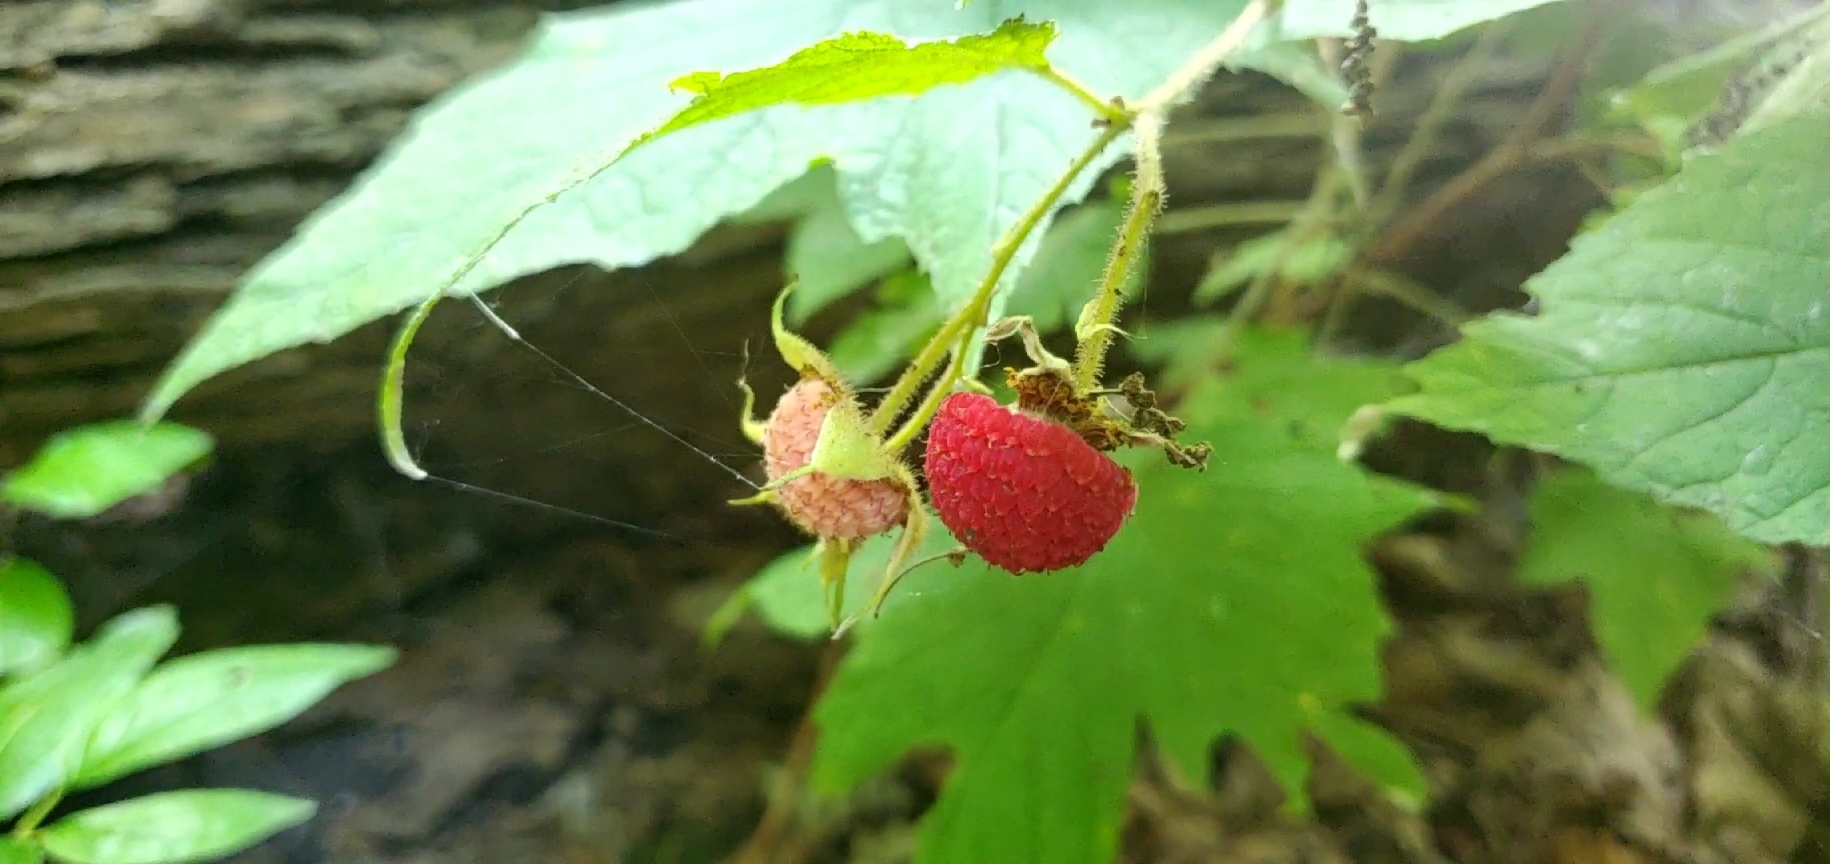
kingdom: Plantae
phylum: Tracheophyta
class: Magnoliopsida
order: Rosales
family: Rosaceae
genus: Rubus
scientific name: Rubus odoratus
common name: Purple-flowered raspberry
